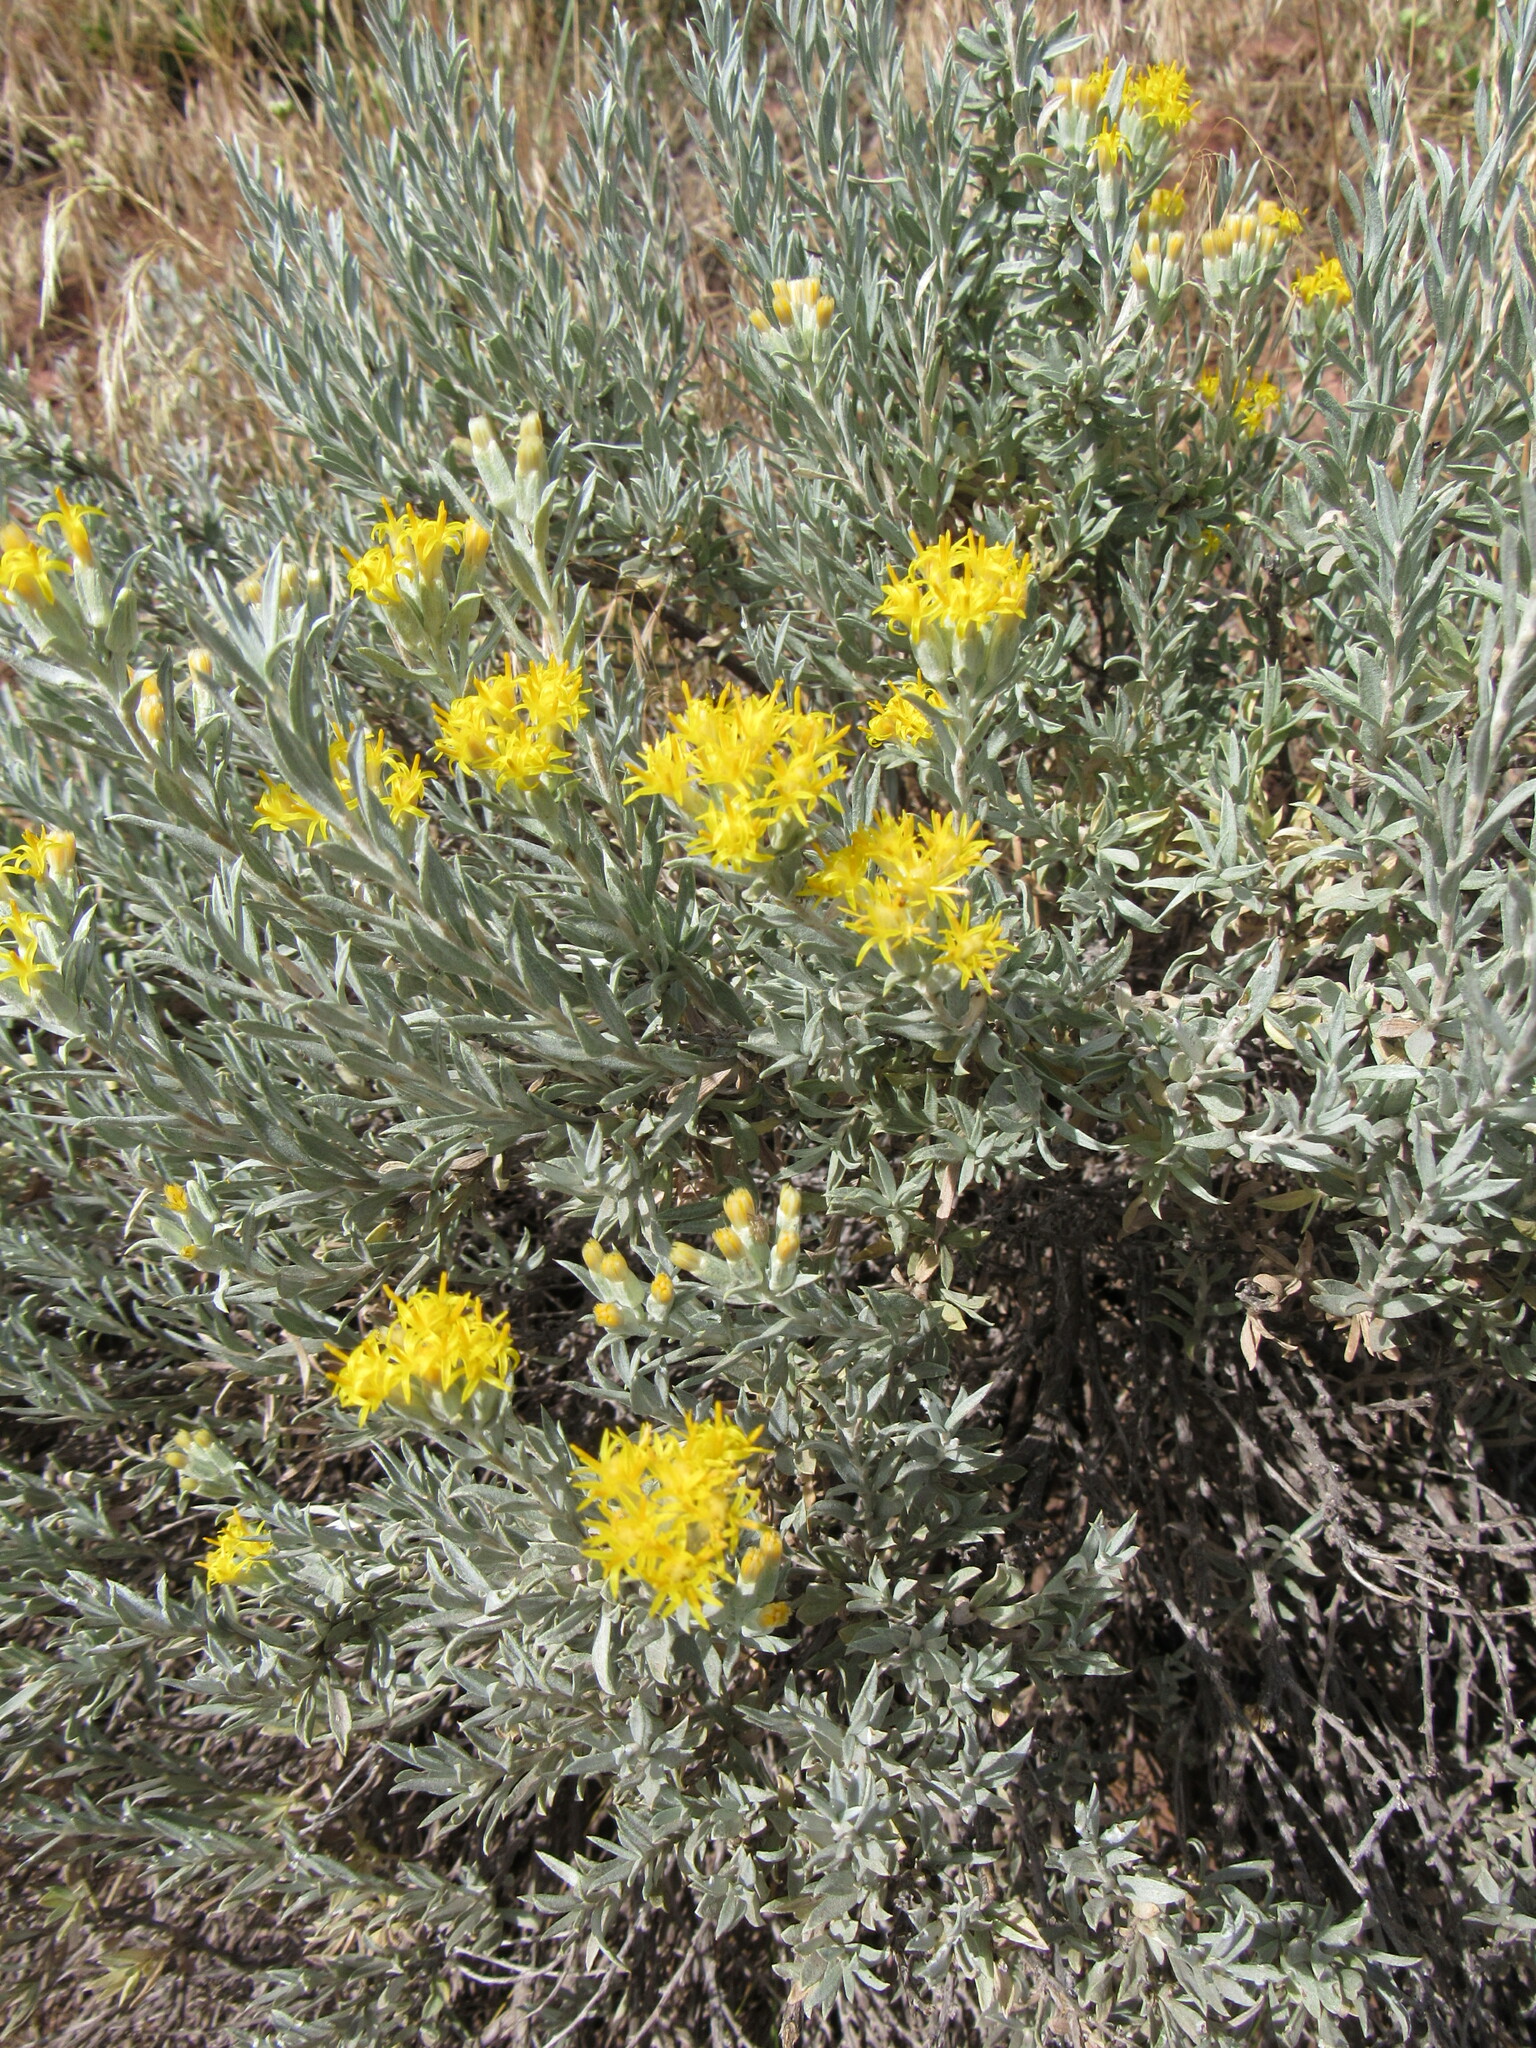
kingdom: Plantae
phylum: Tracheophyta
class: Magnoliopsida
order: Asterales
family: Asteraceae
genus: Tetradymia
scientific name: Tetradymia canescens
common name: Spineless horsebrush
